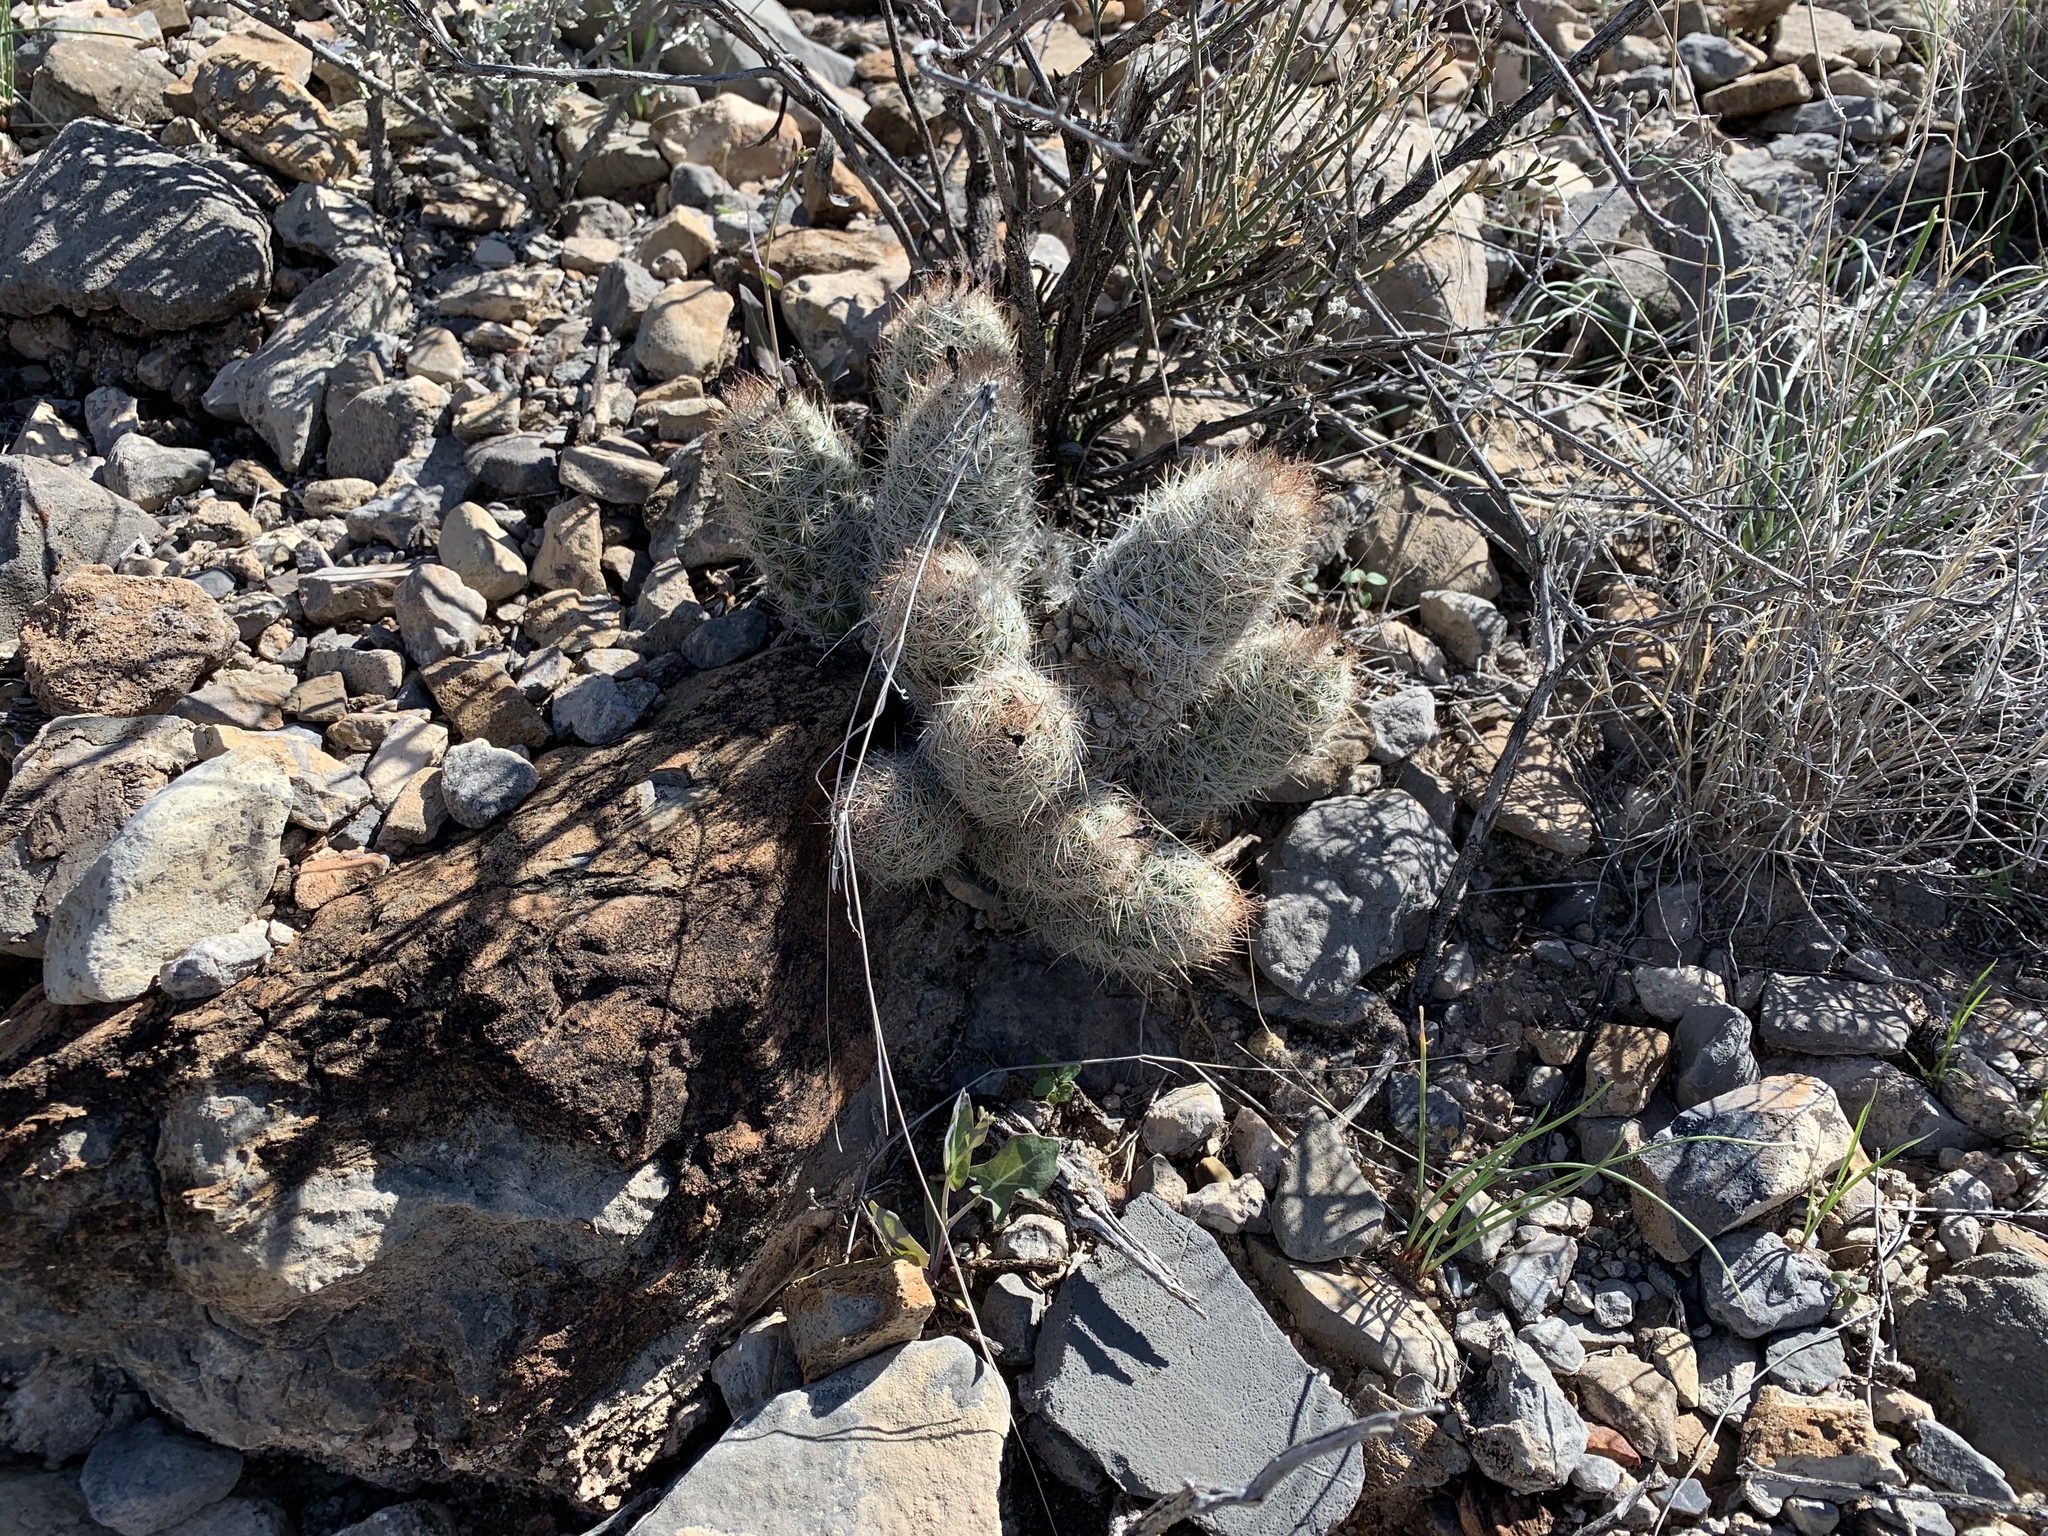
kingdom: Plantae
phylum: Tracheophyta
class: Magnoliopsida
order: Caryophyllales
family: Cactaceae
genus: Pelecyphora
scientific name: Pelecyphora tuberculosa
